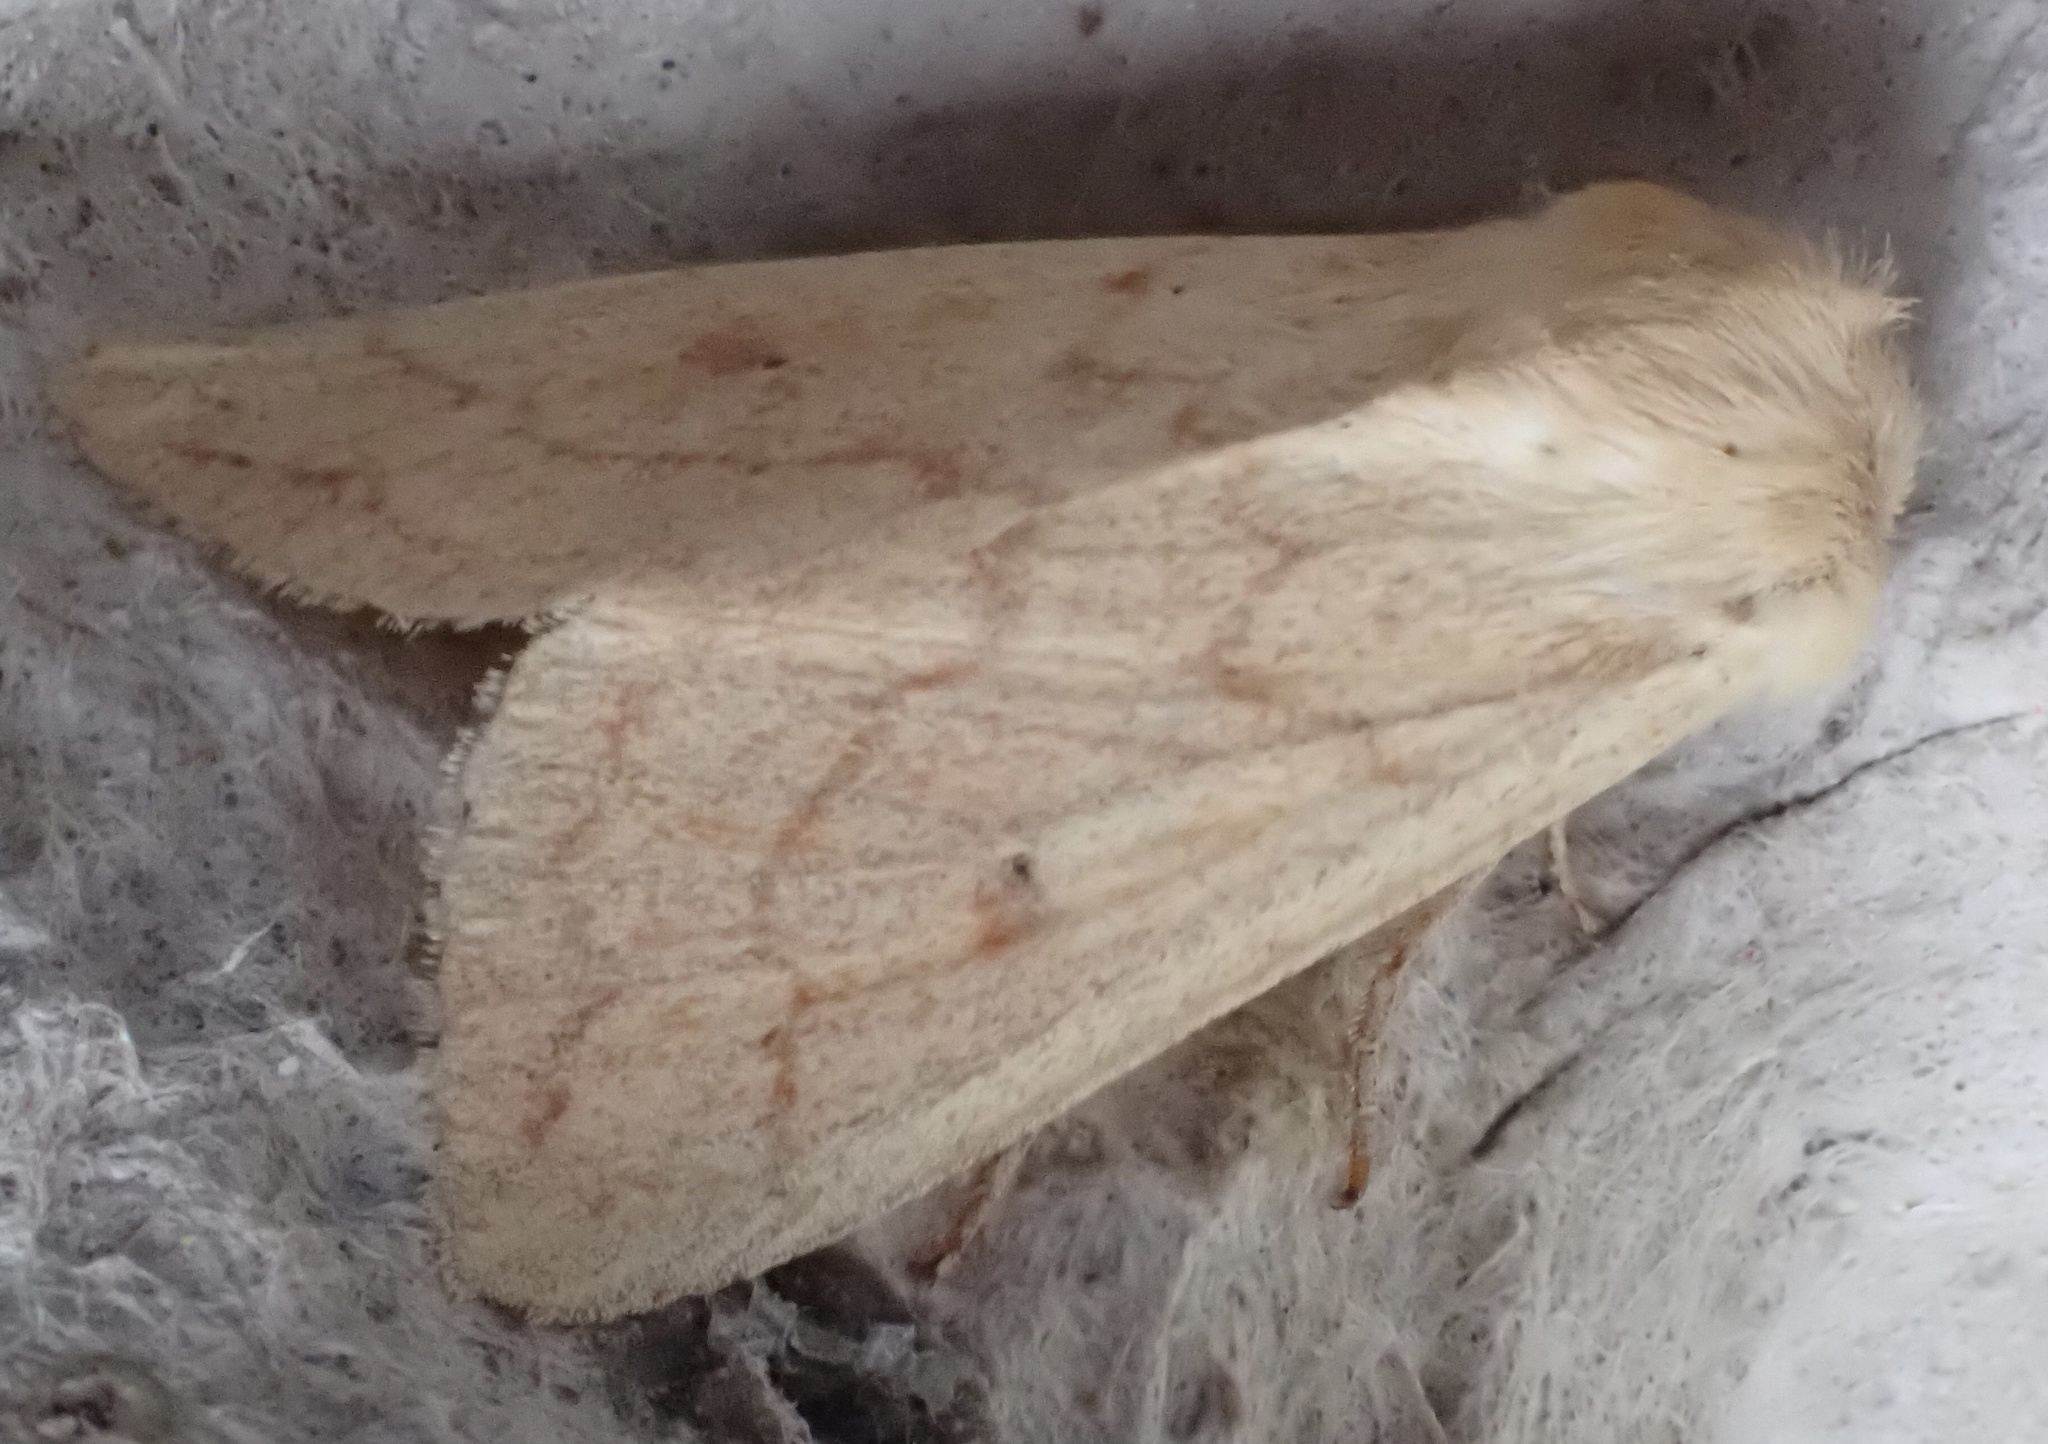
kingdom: Animalia
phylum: Arthropoda
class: Insecta
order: Lepidoptera
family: Noctuidae
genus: Mythimna
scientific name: Mythimna vitellina
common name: Delicate
